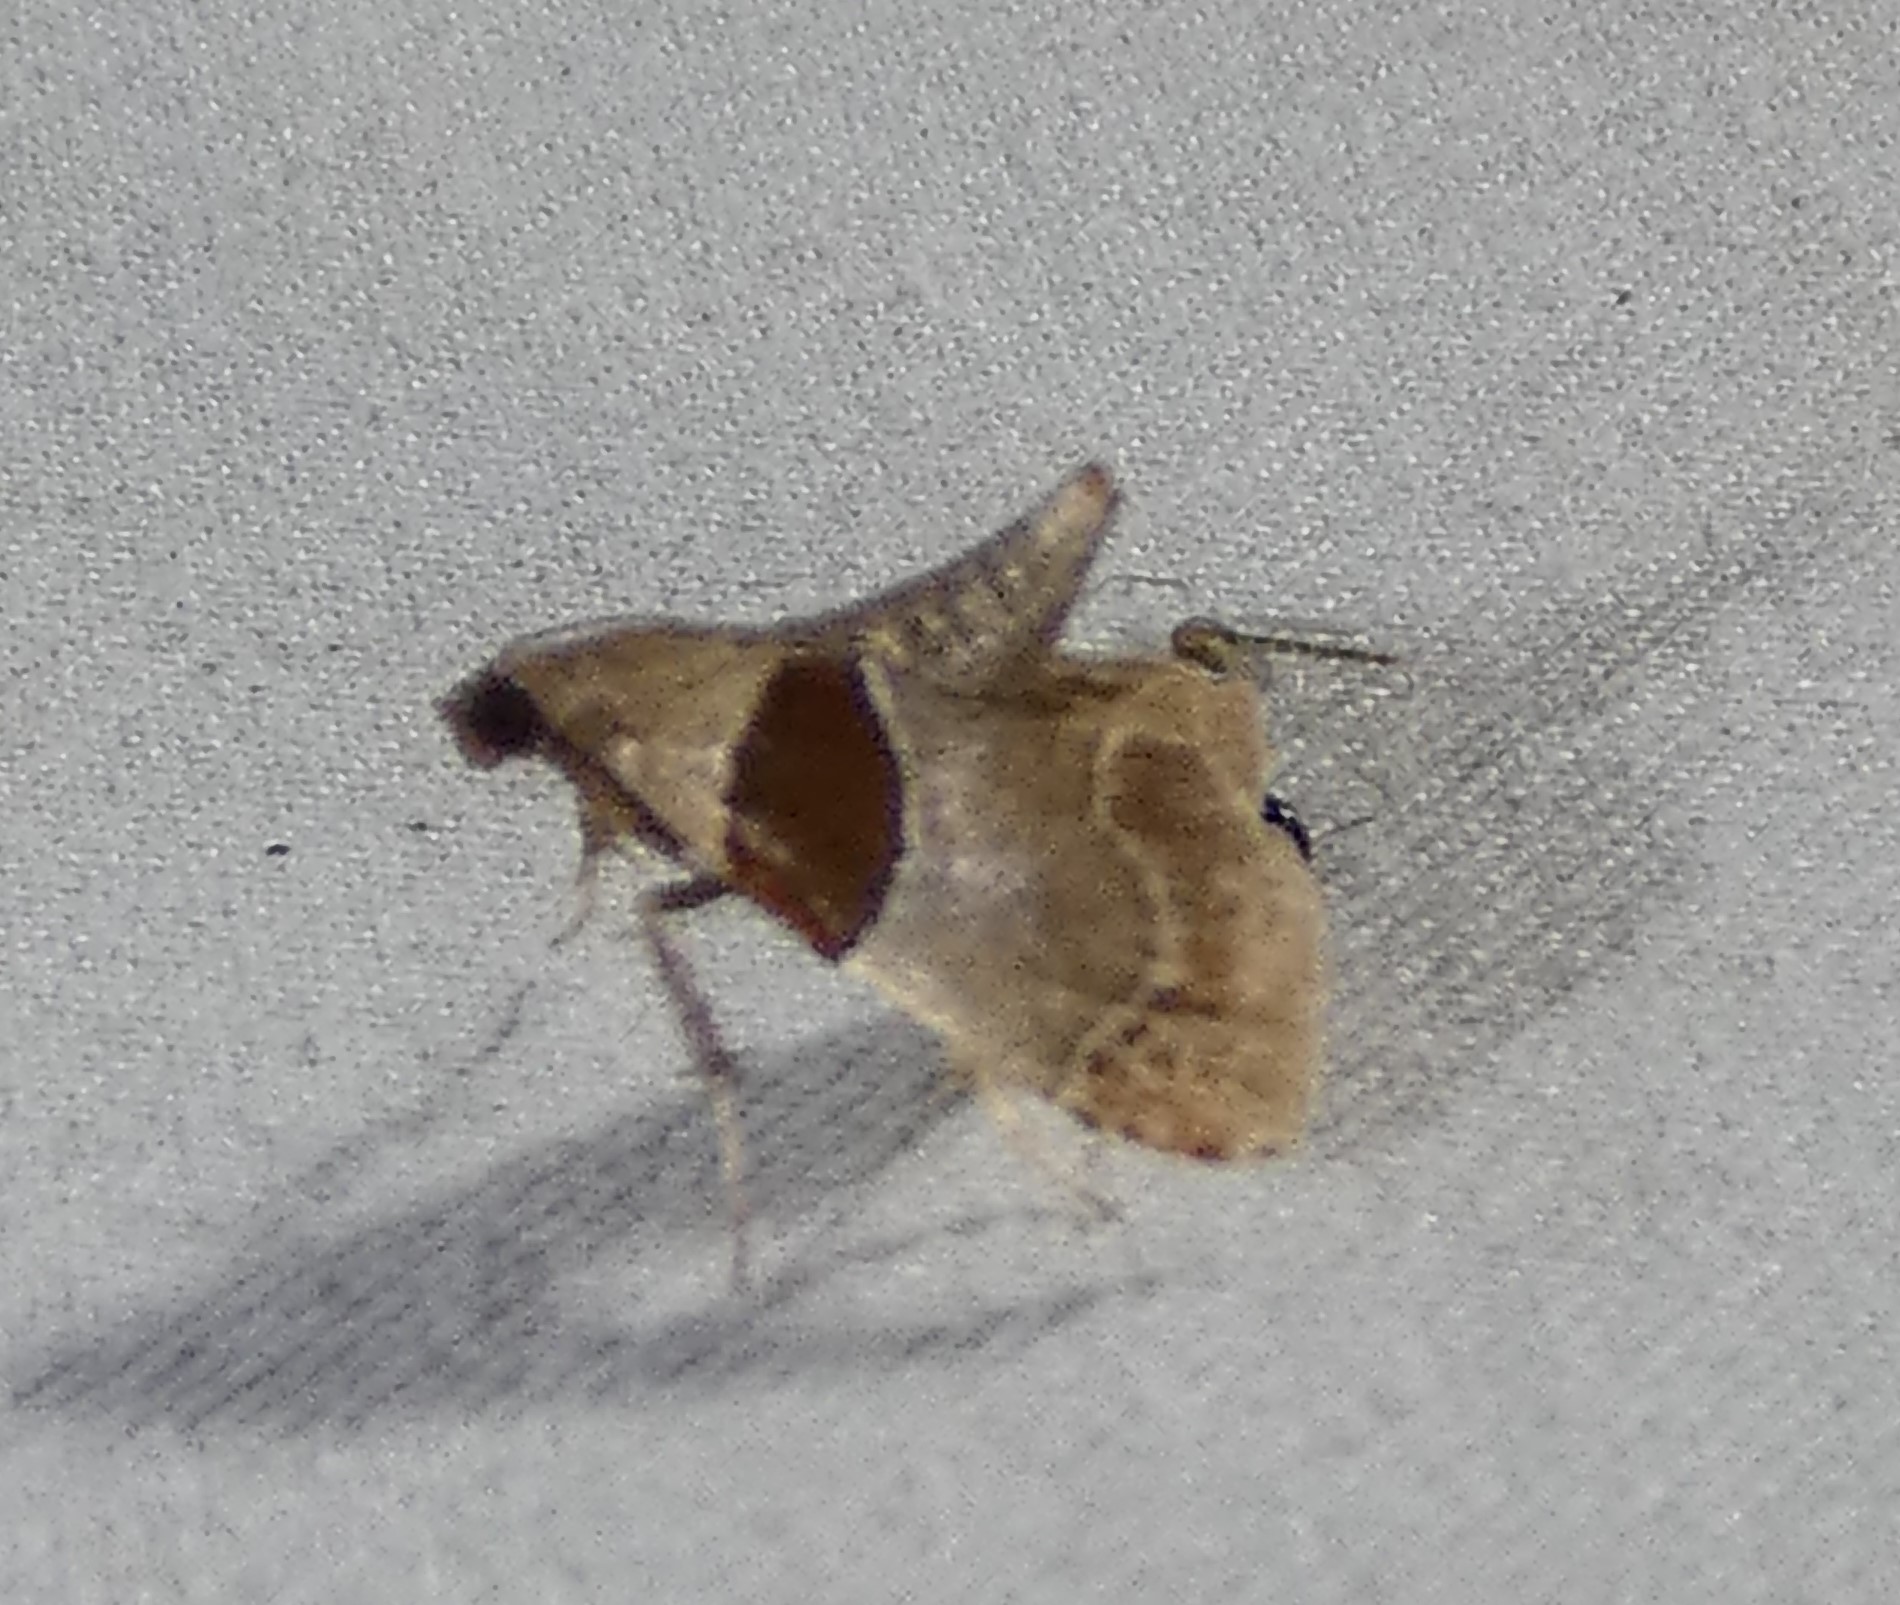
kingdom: Animalia
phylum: Arthropoda
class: Insecta
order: Lepidoptera
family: Pyralidae
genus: Tosale
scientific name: Tosale oviplagalis
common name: Dimorphic tosale moth
